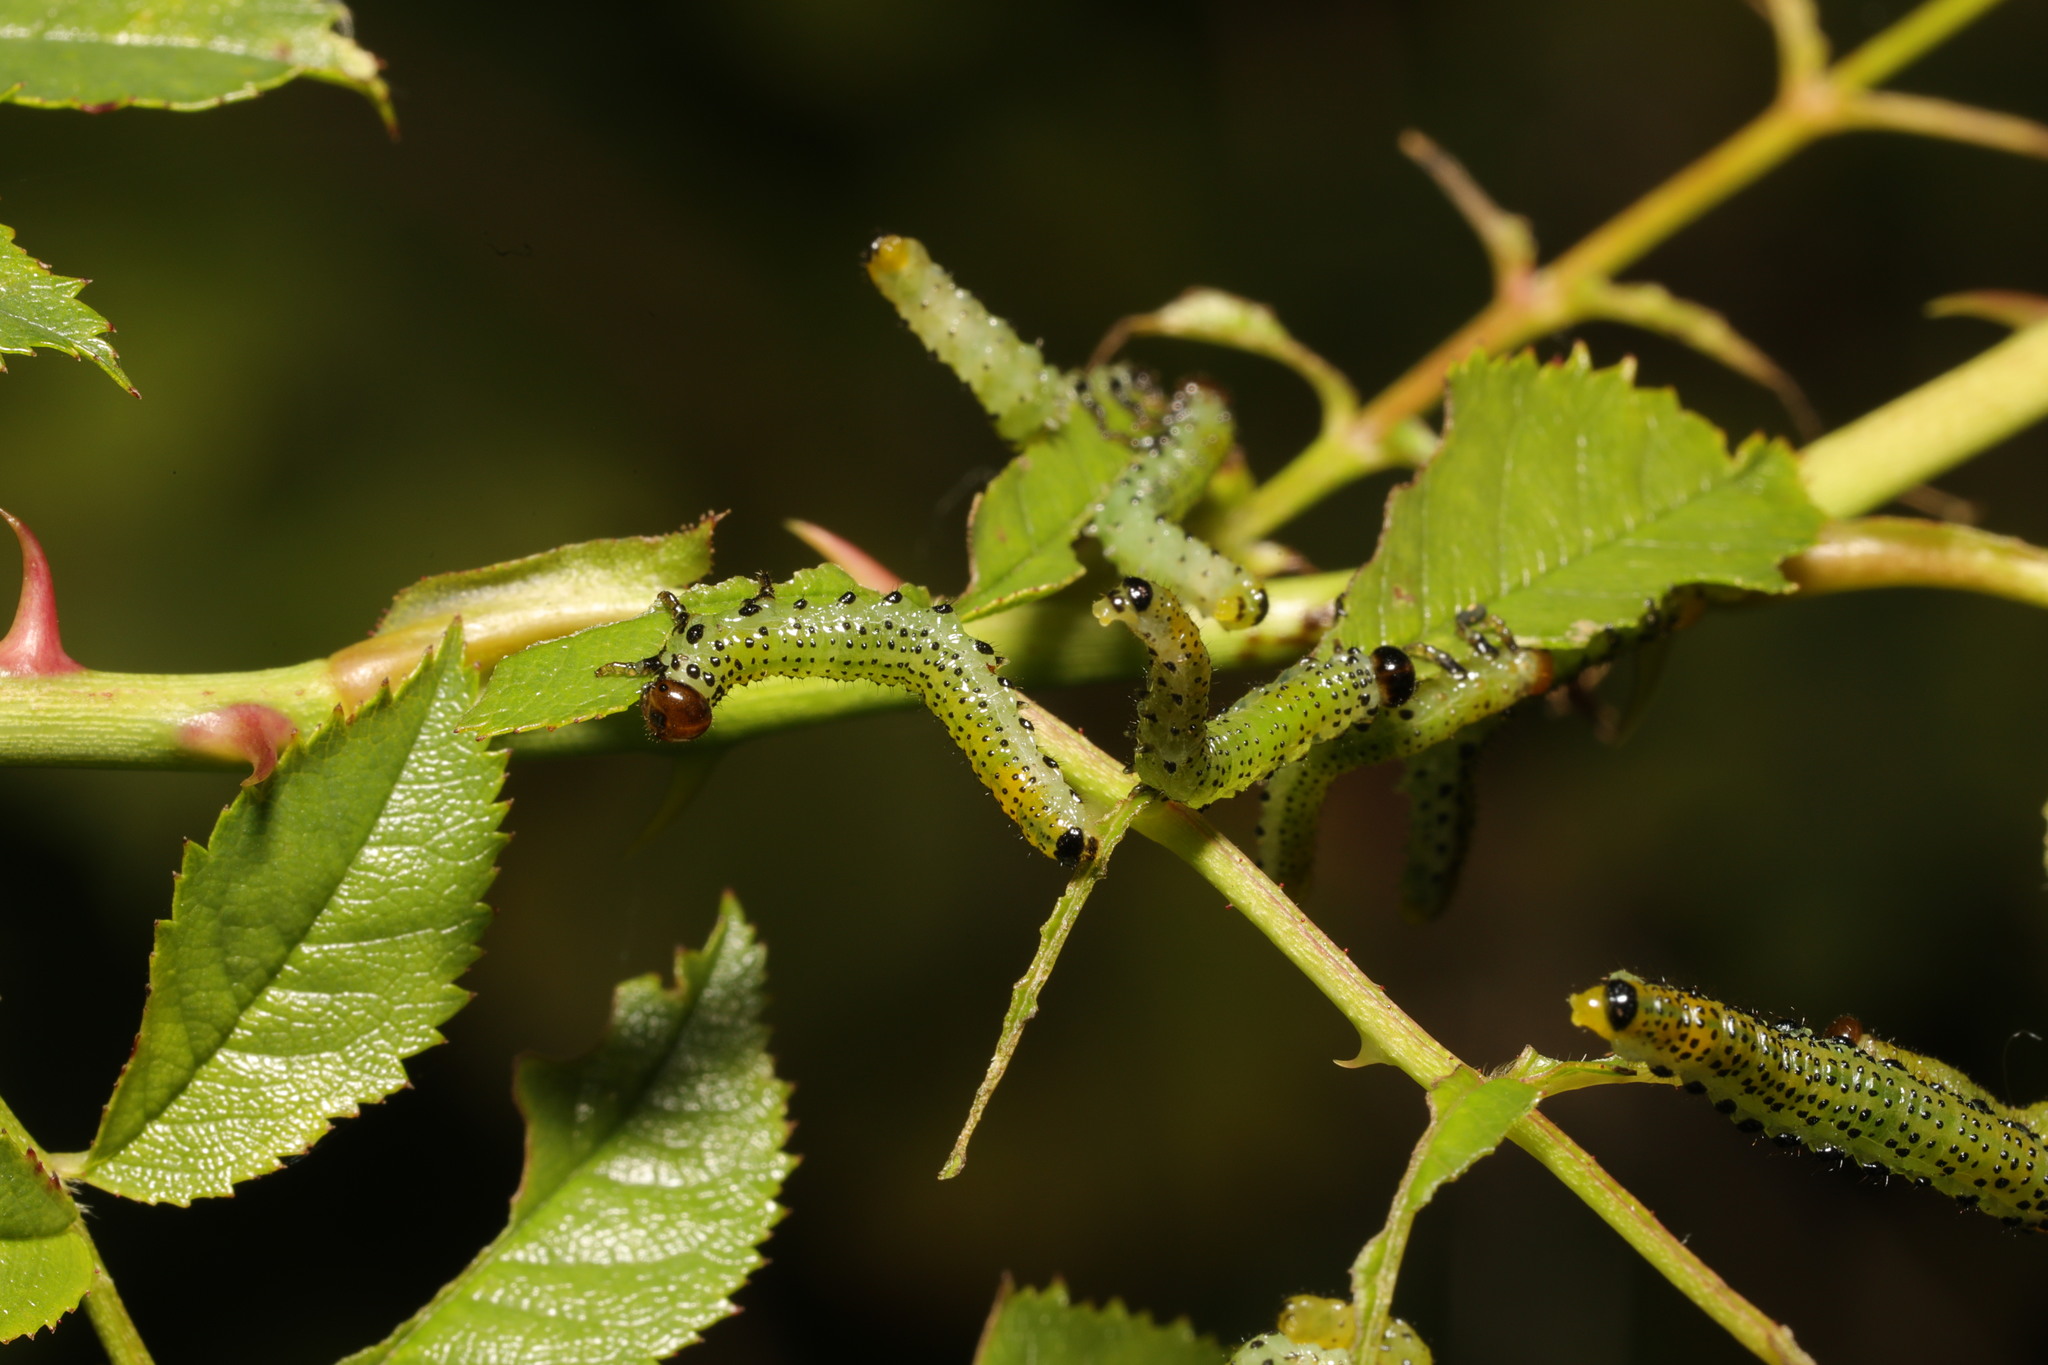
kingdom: Animalia
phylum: Arthropoda
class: Insecta
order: Hymenoptera
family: Argidae
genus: Arge
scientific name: Arge pagana
